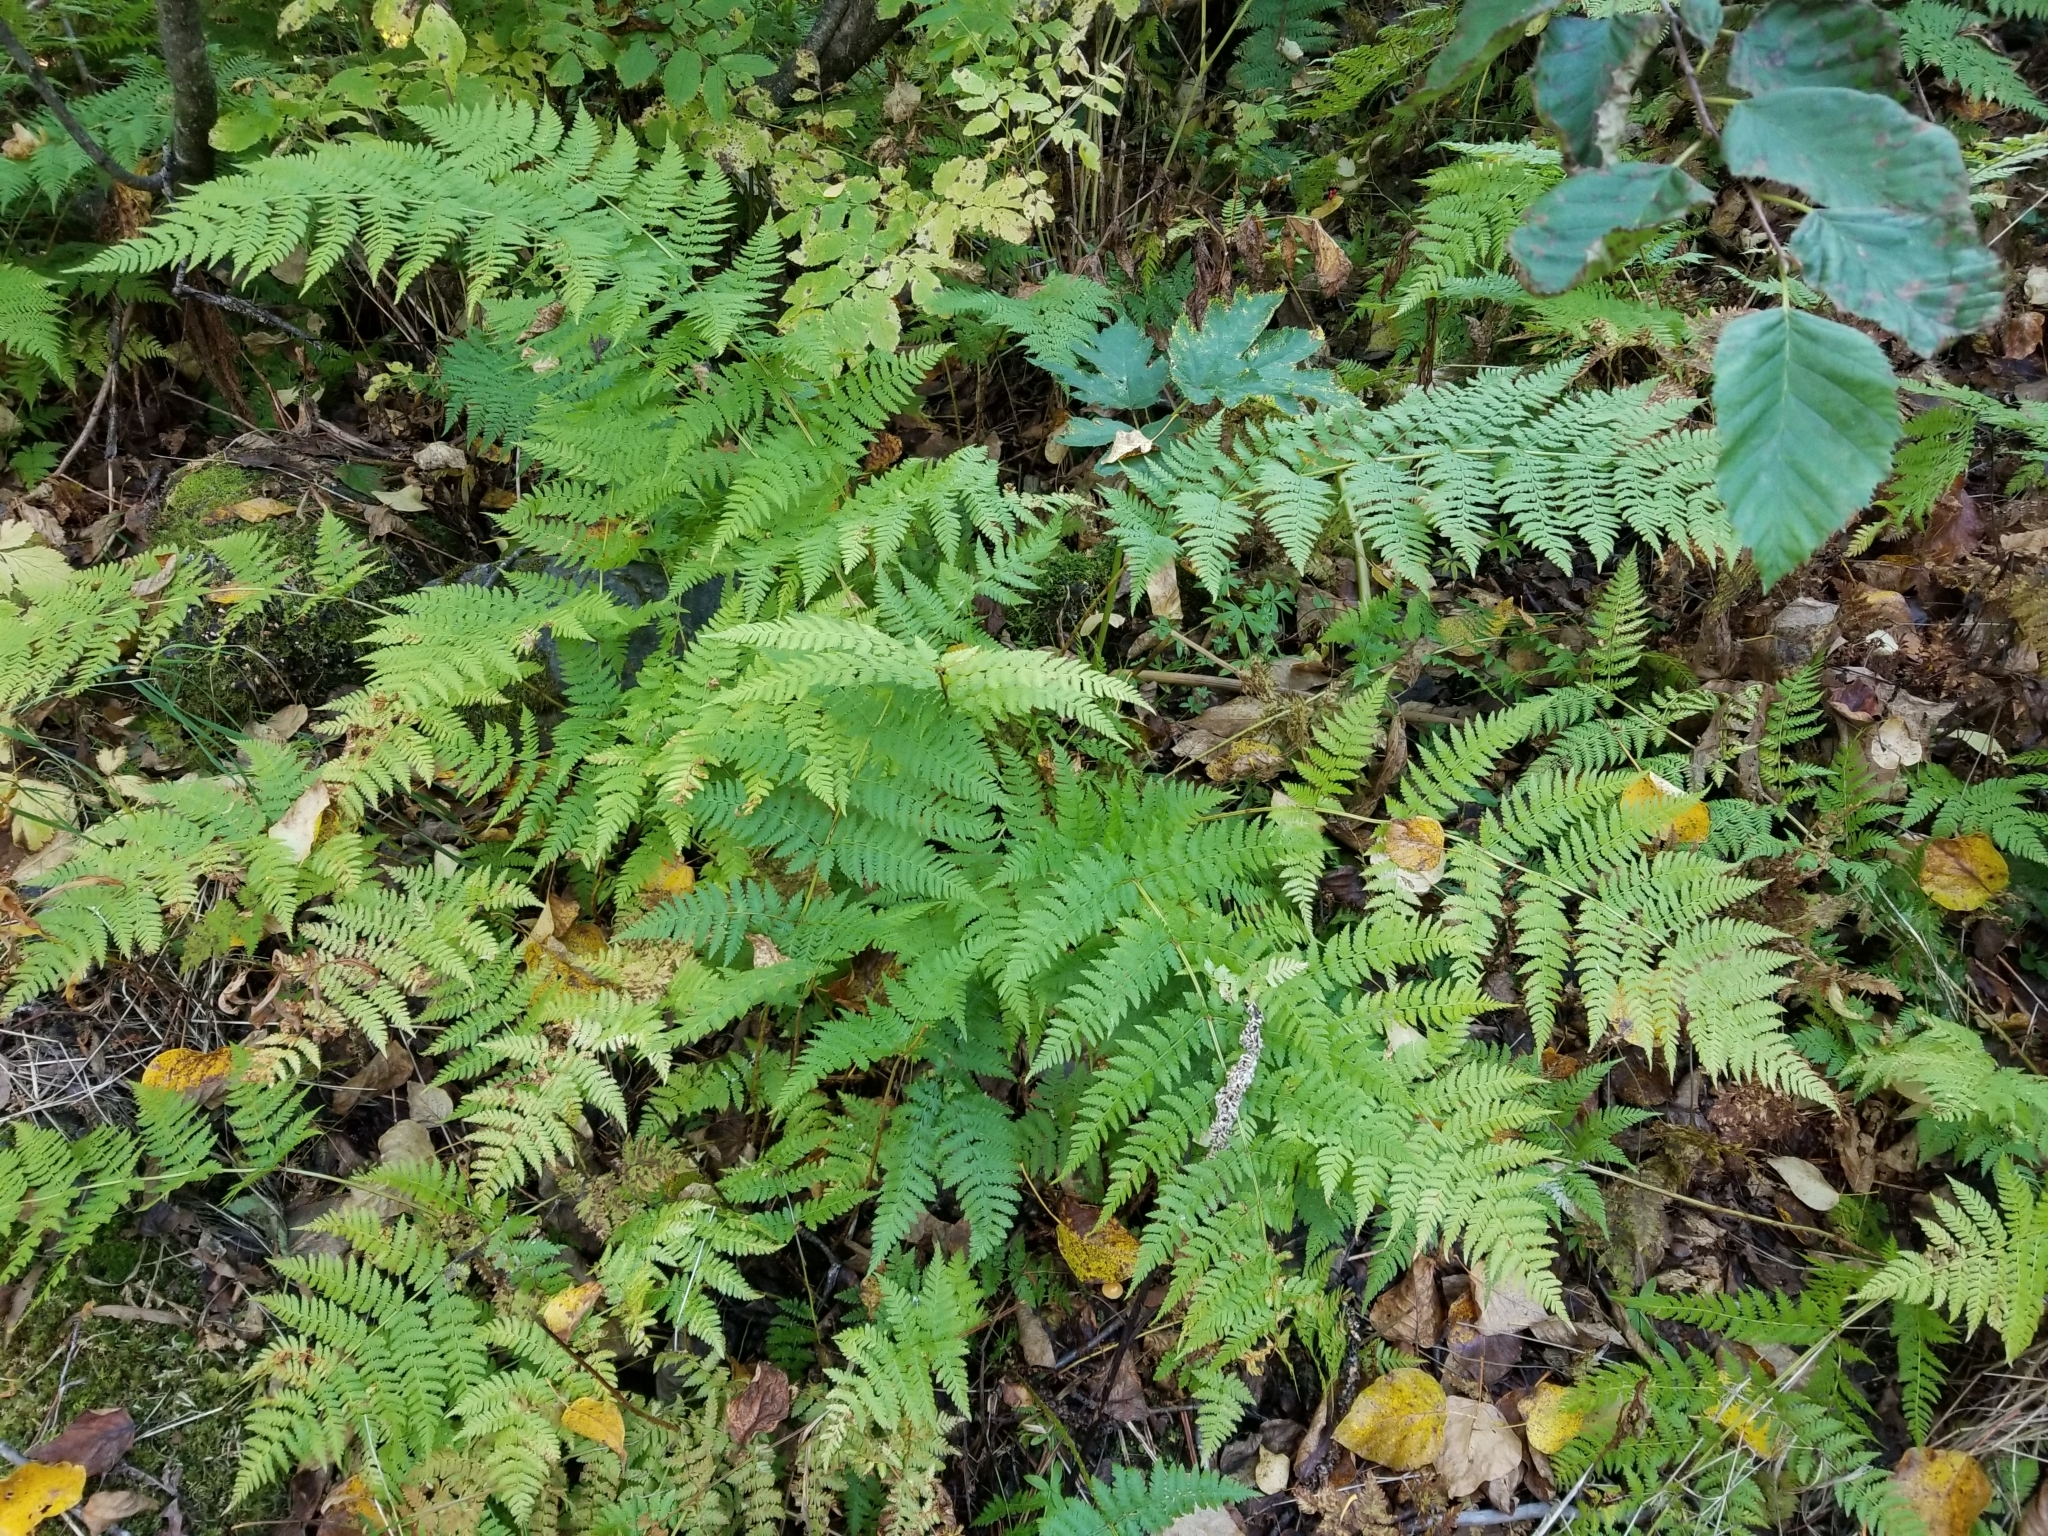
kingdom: Plantae
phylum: Tracheophyta
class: Polypodiopsida
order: Polypodiales
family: Dryopteridaceae
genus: Dryopteris
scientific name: Dryopteris expansa
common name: Northern buckler fern
